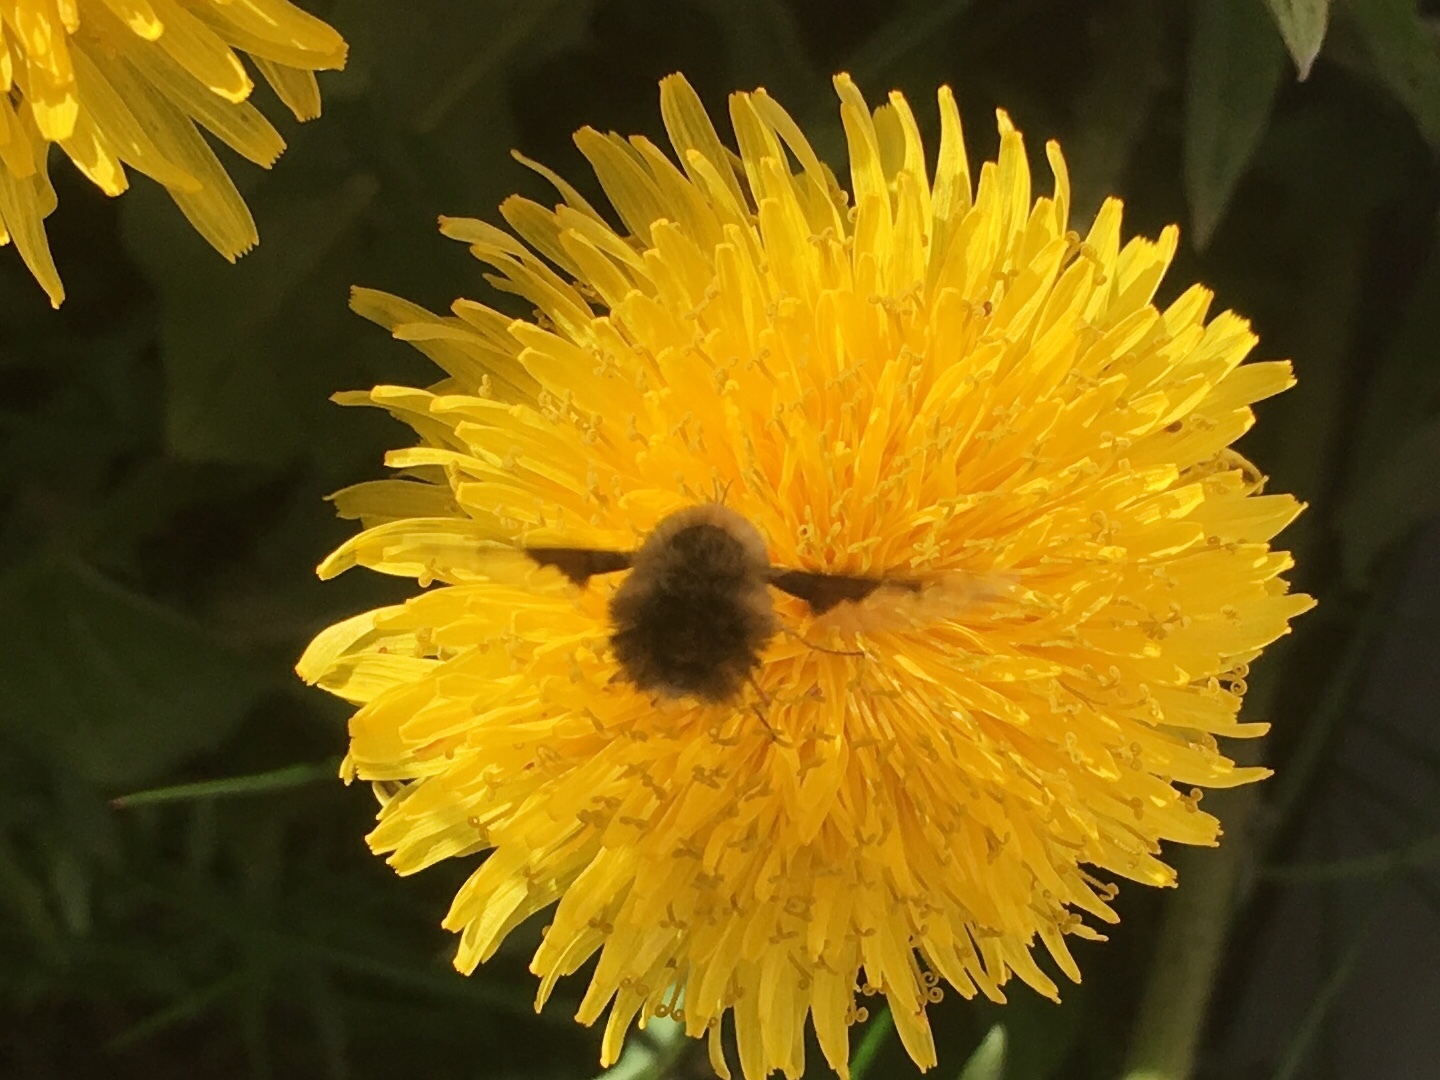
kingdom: Plantae
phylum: Tracheophyta
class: Magnoliopsida
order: Asterales
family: Asteraceae
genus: Taraxacum
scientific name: Taraxacum officinale
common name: Common dandelion
